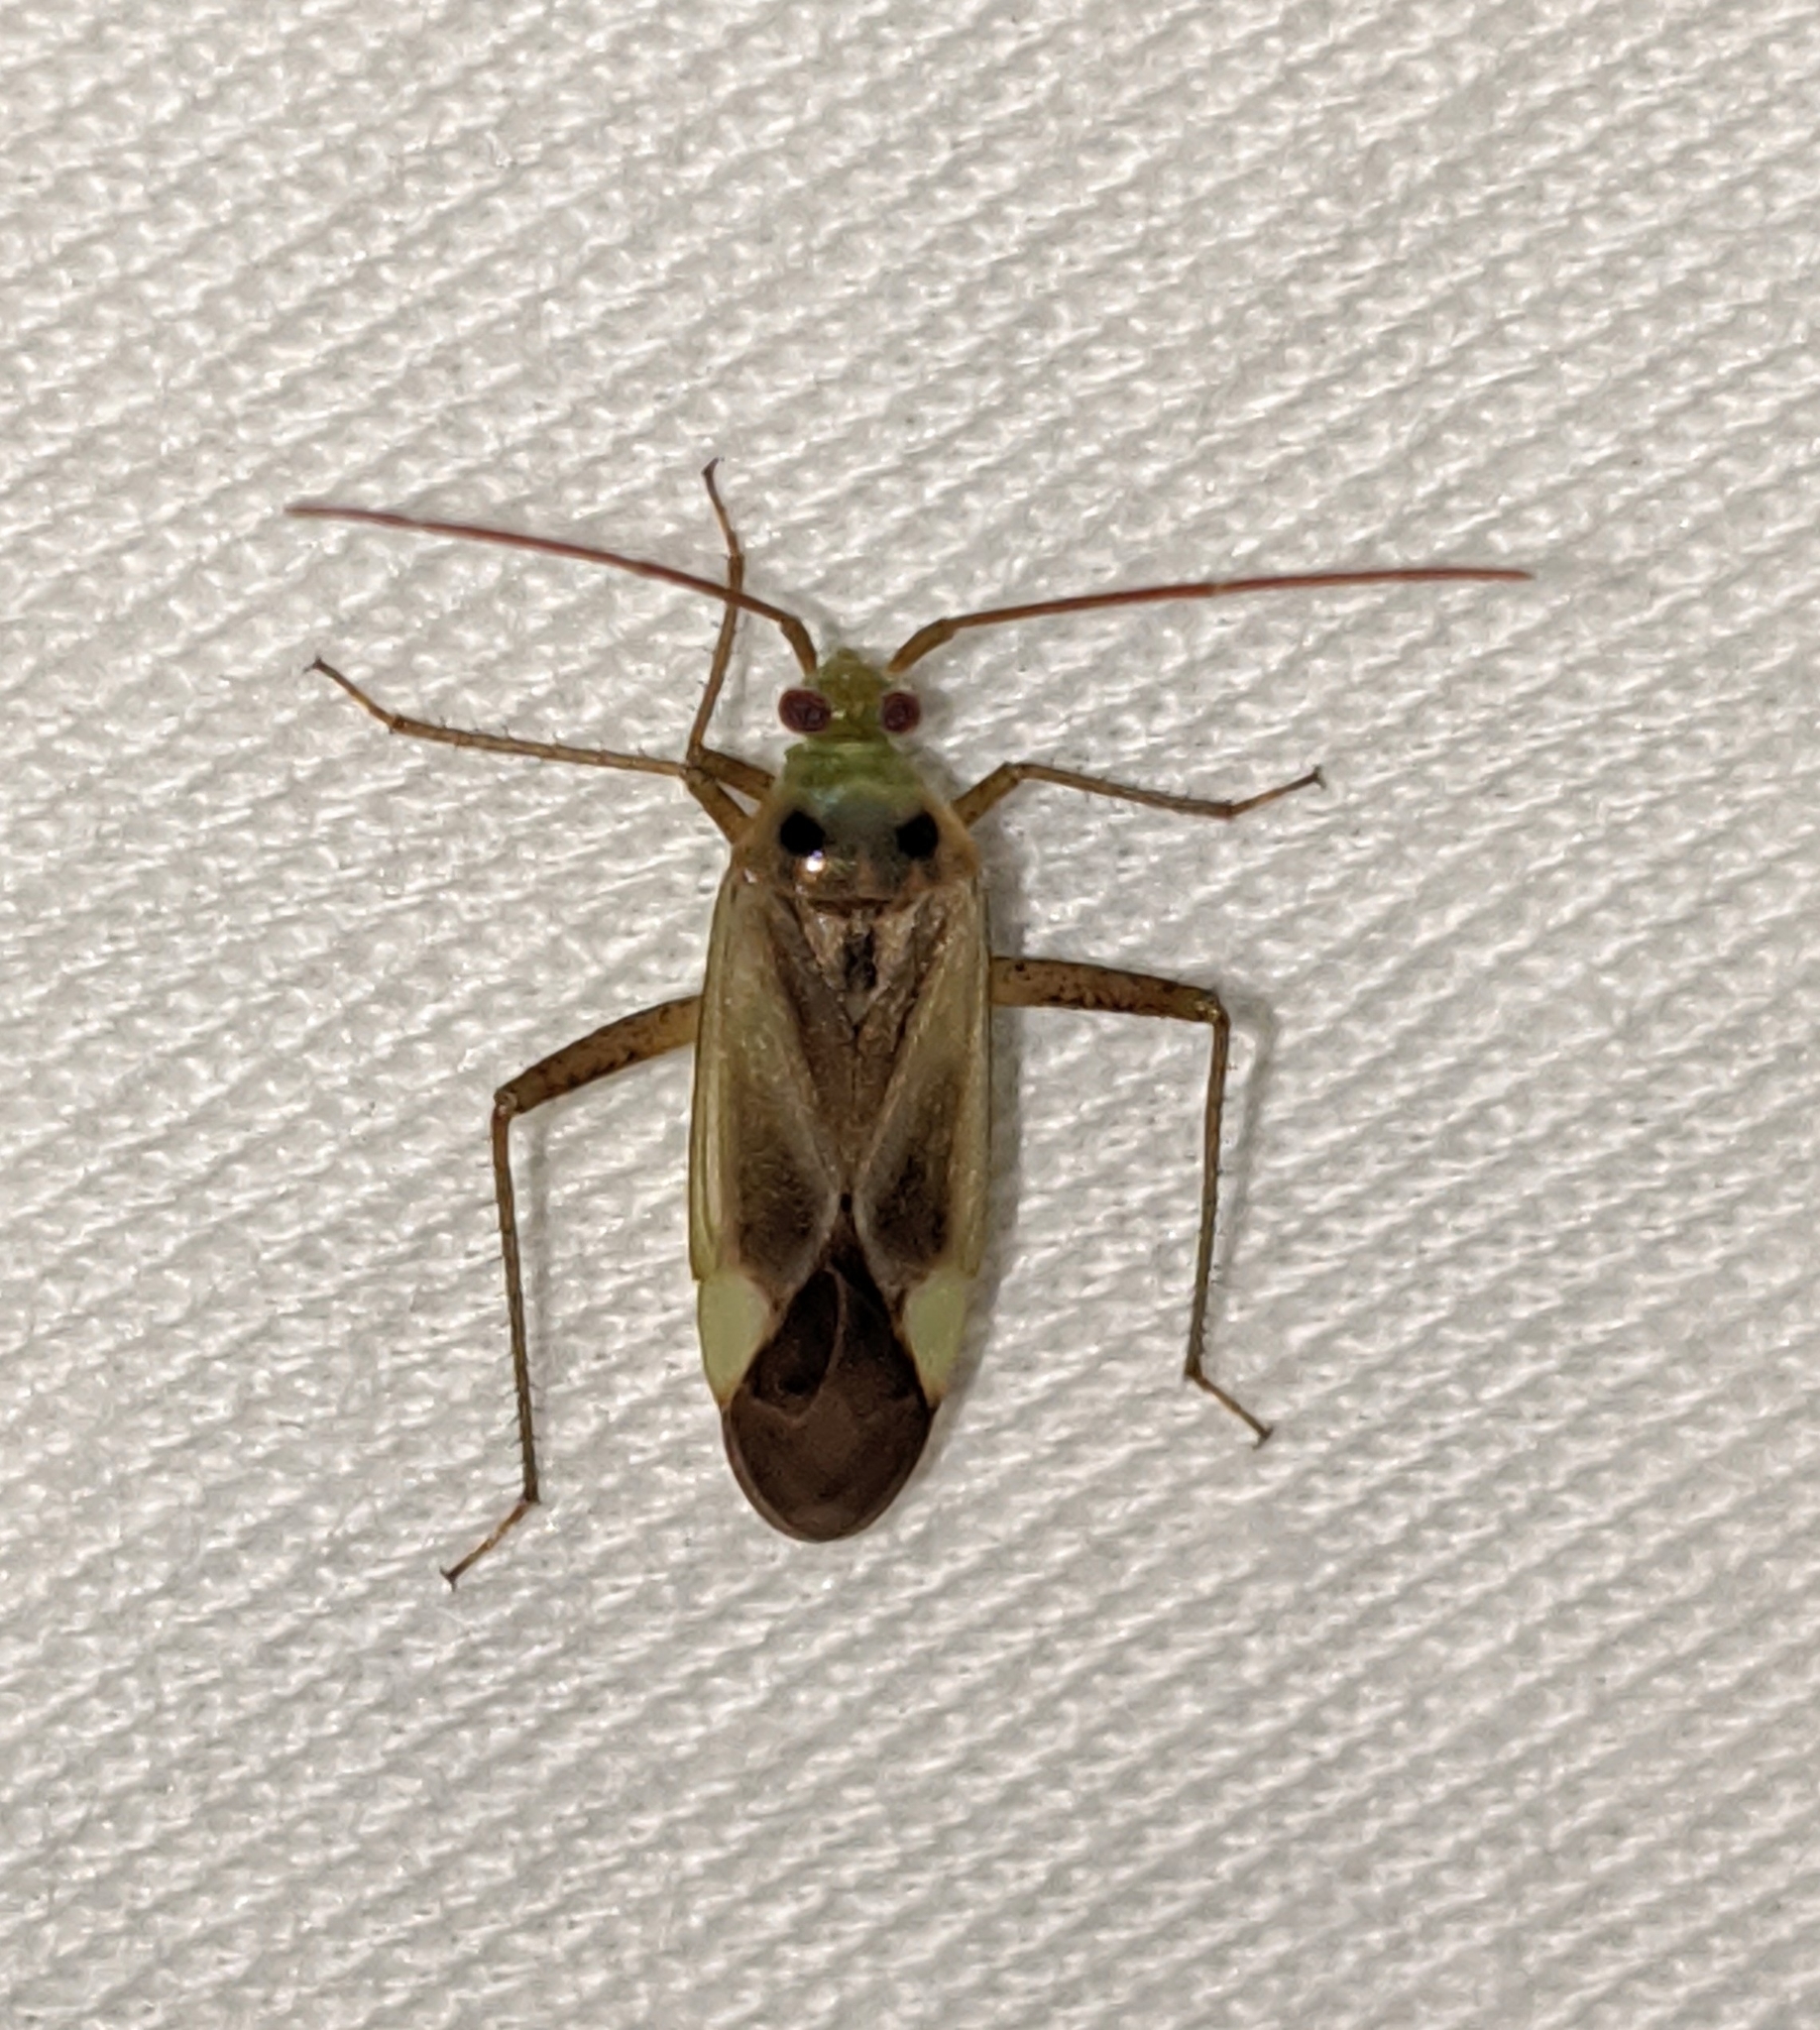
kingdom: Animalia
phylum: Arthropoda
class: Insecta
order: Hemiptera
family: Miridae
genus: Adelphocoris
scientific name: Adelphocoris lineolatus
